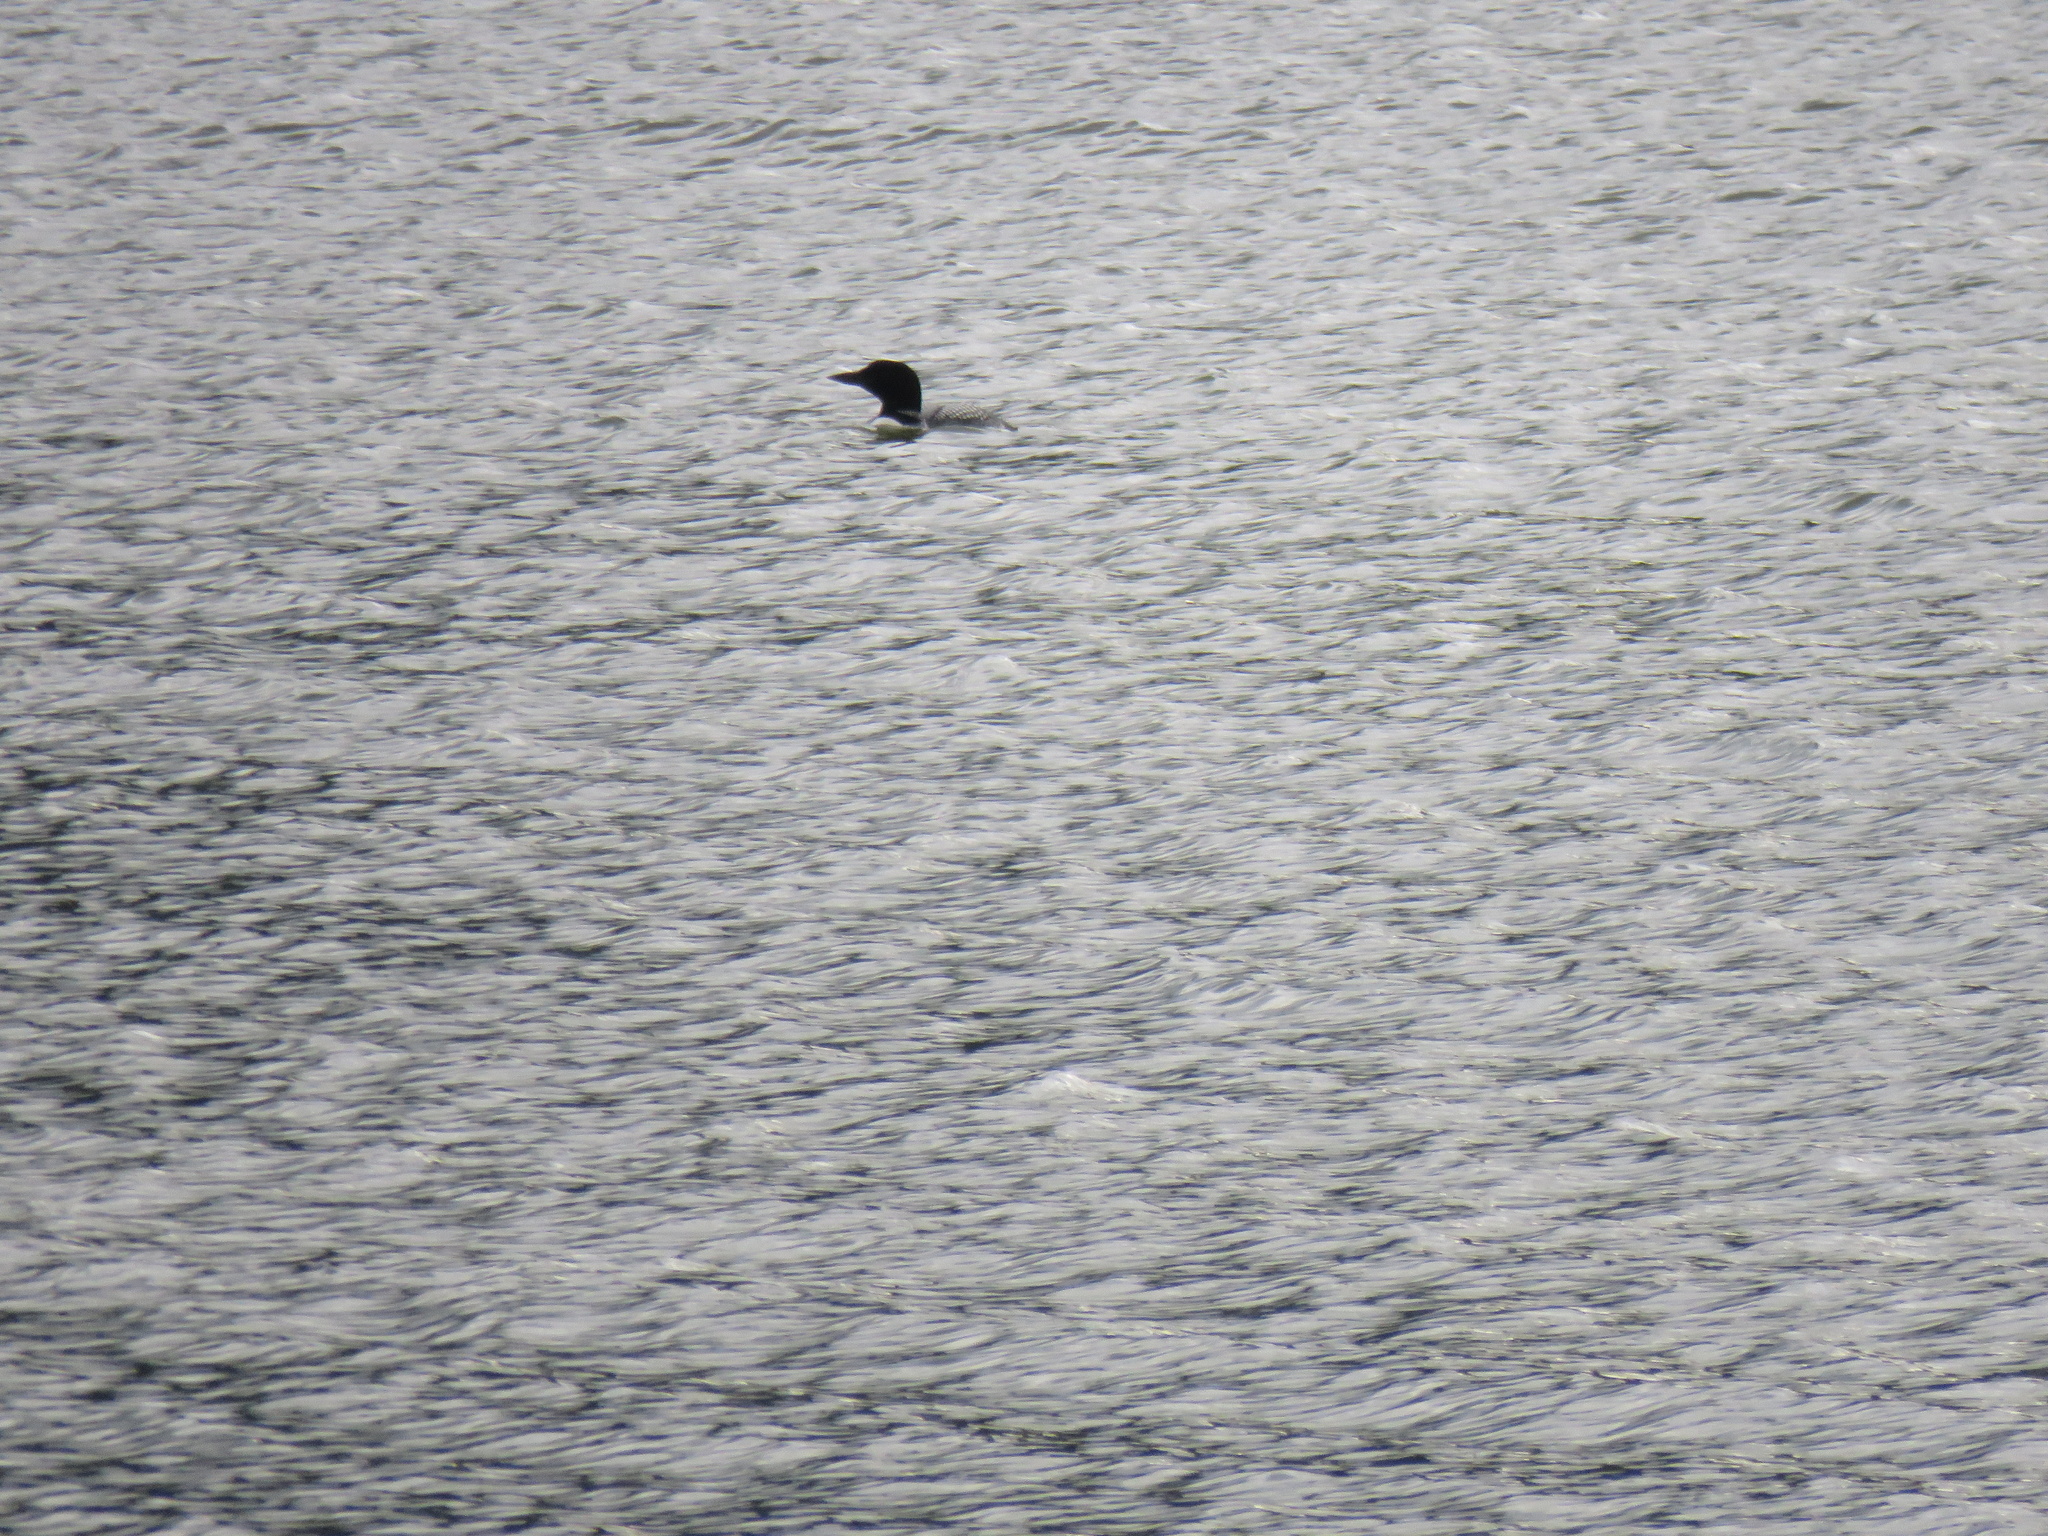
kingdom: Animalia
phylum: Chordata
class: Aves
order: Gaviiformes
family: Gaviidae
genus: Gavia
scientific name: Gavia immer
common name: Common loon
